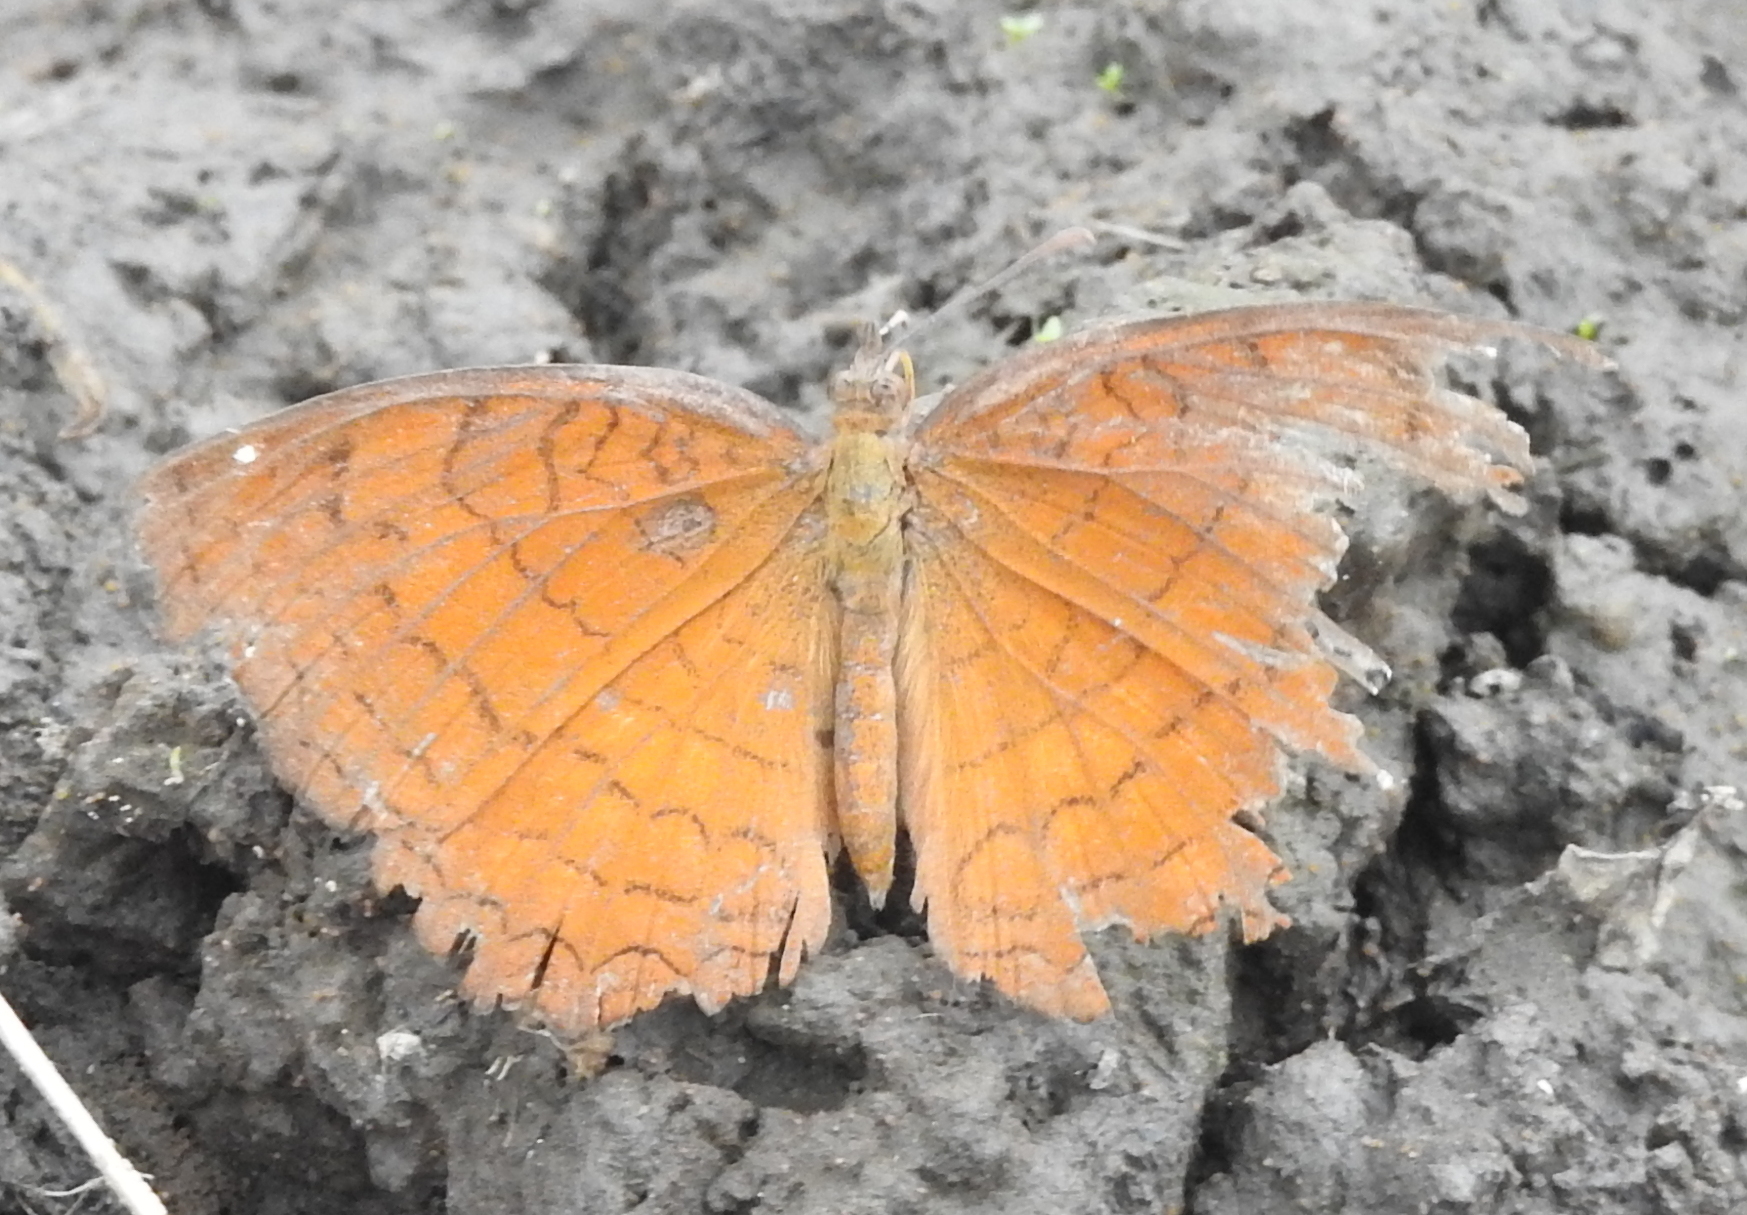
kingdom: Animalia
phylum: Arthropoda
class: Insecta
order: Lepidoptera
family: Nymphalidae
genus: Ariadne
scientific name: Ariadne ariadne
